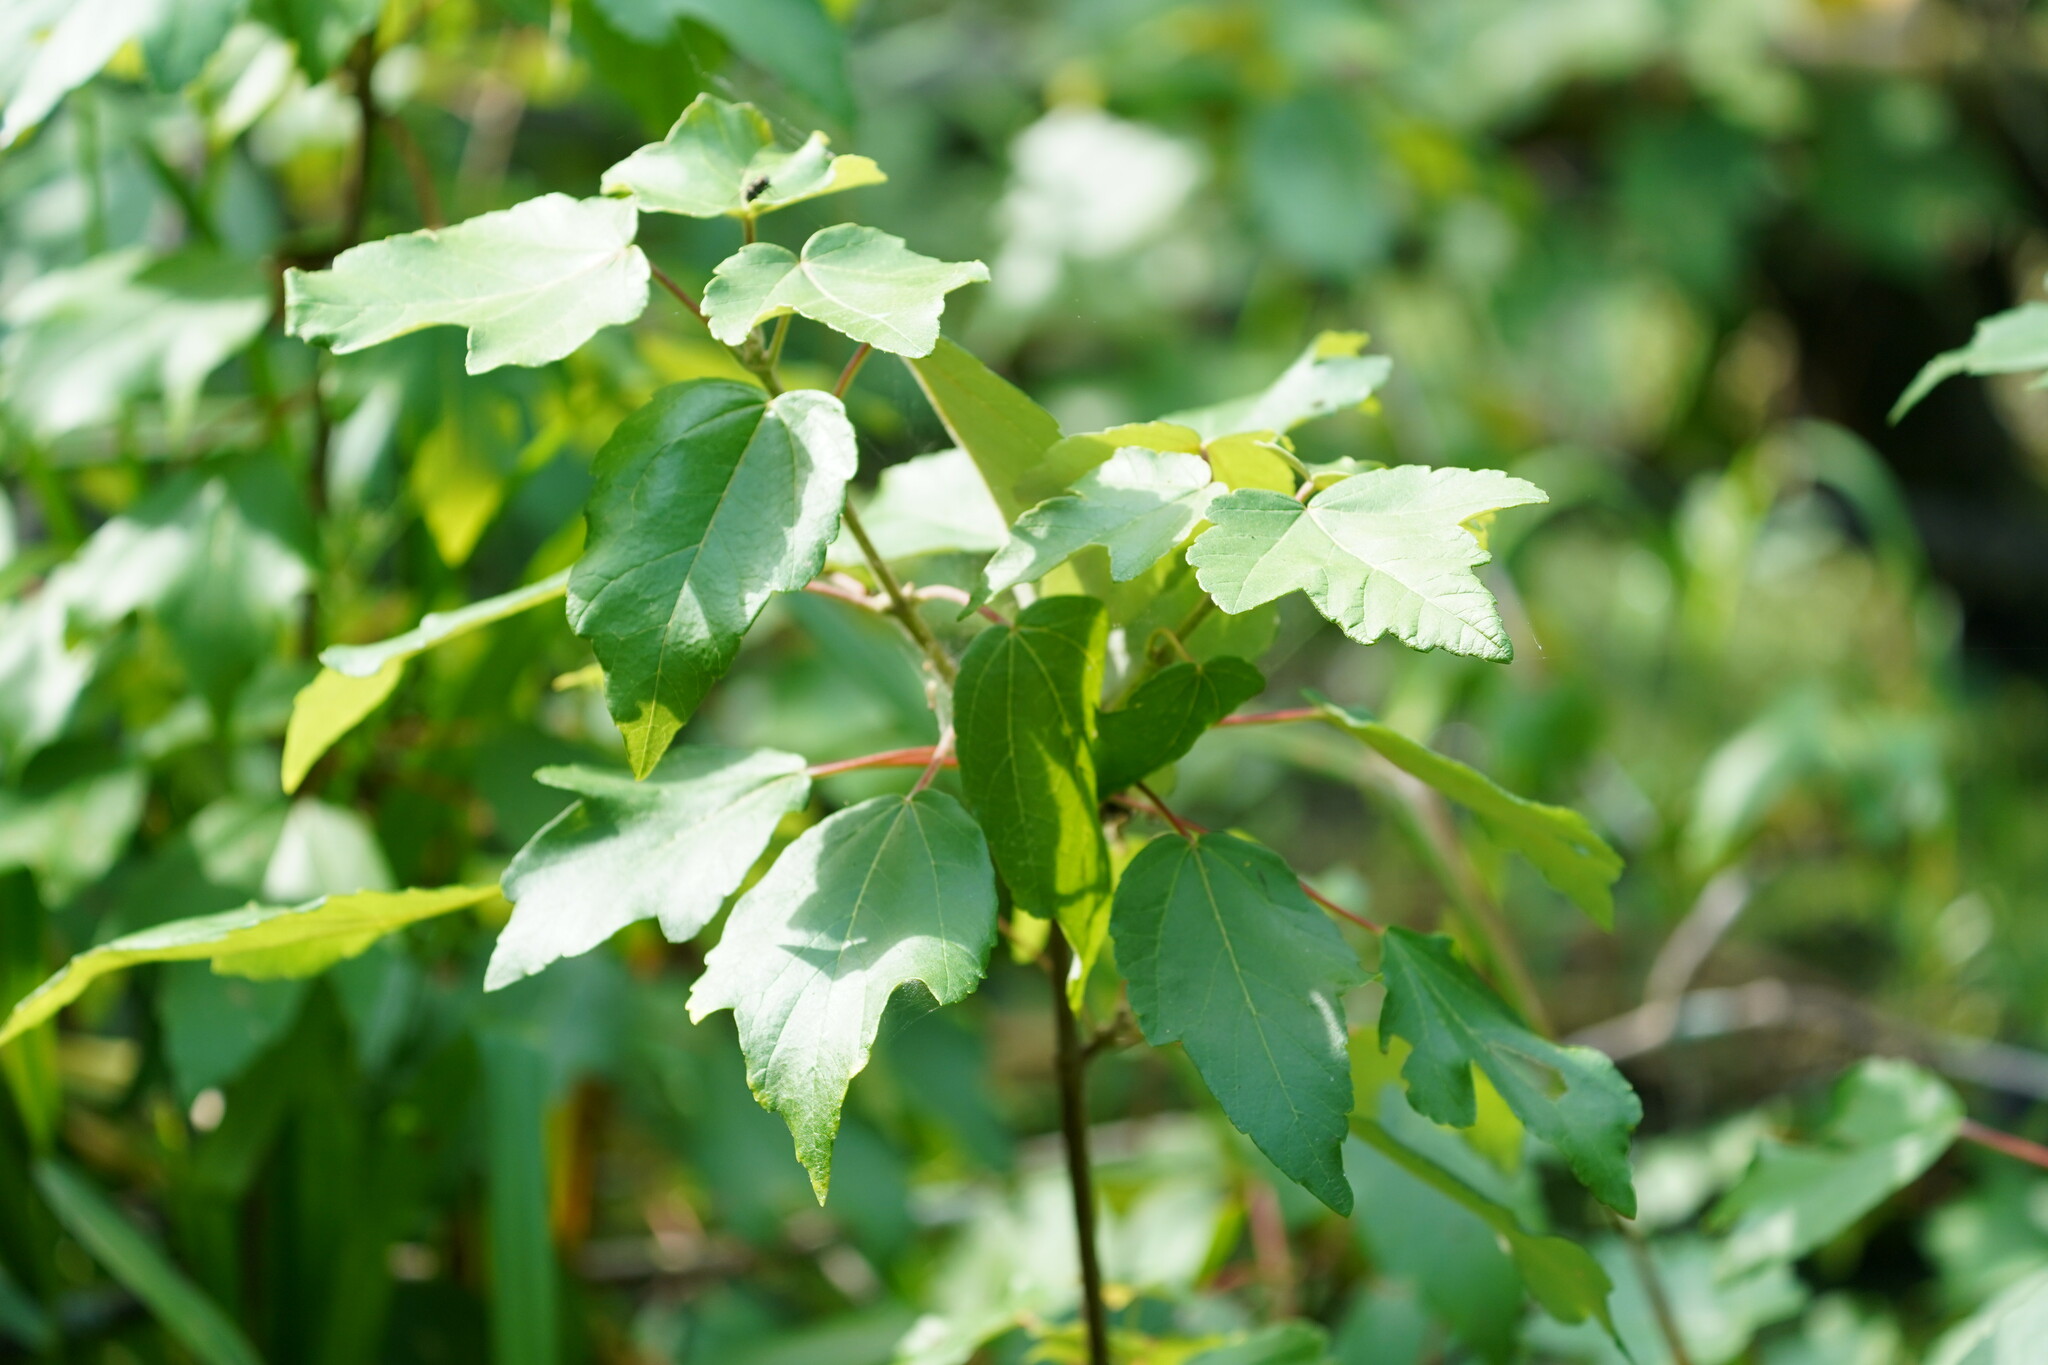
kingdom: Plantae
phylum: Tracheophyta
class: Magnoliopsida
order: Sapindales
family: Sapindaceae
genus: Acer
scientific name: Acer rubrum
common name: Red maple
